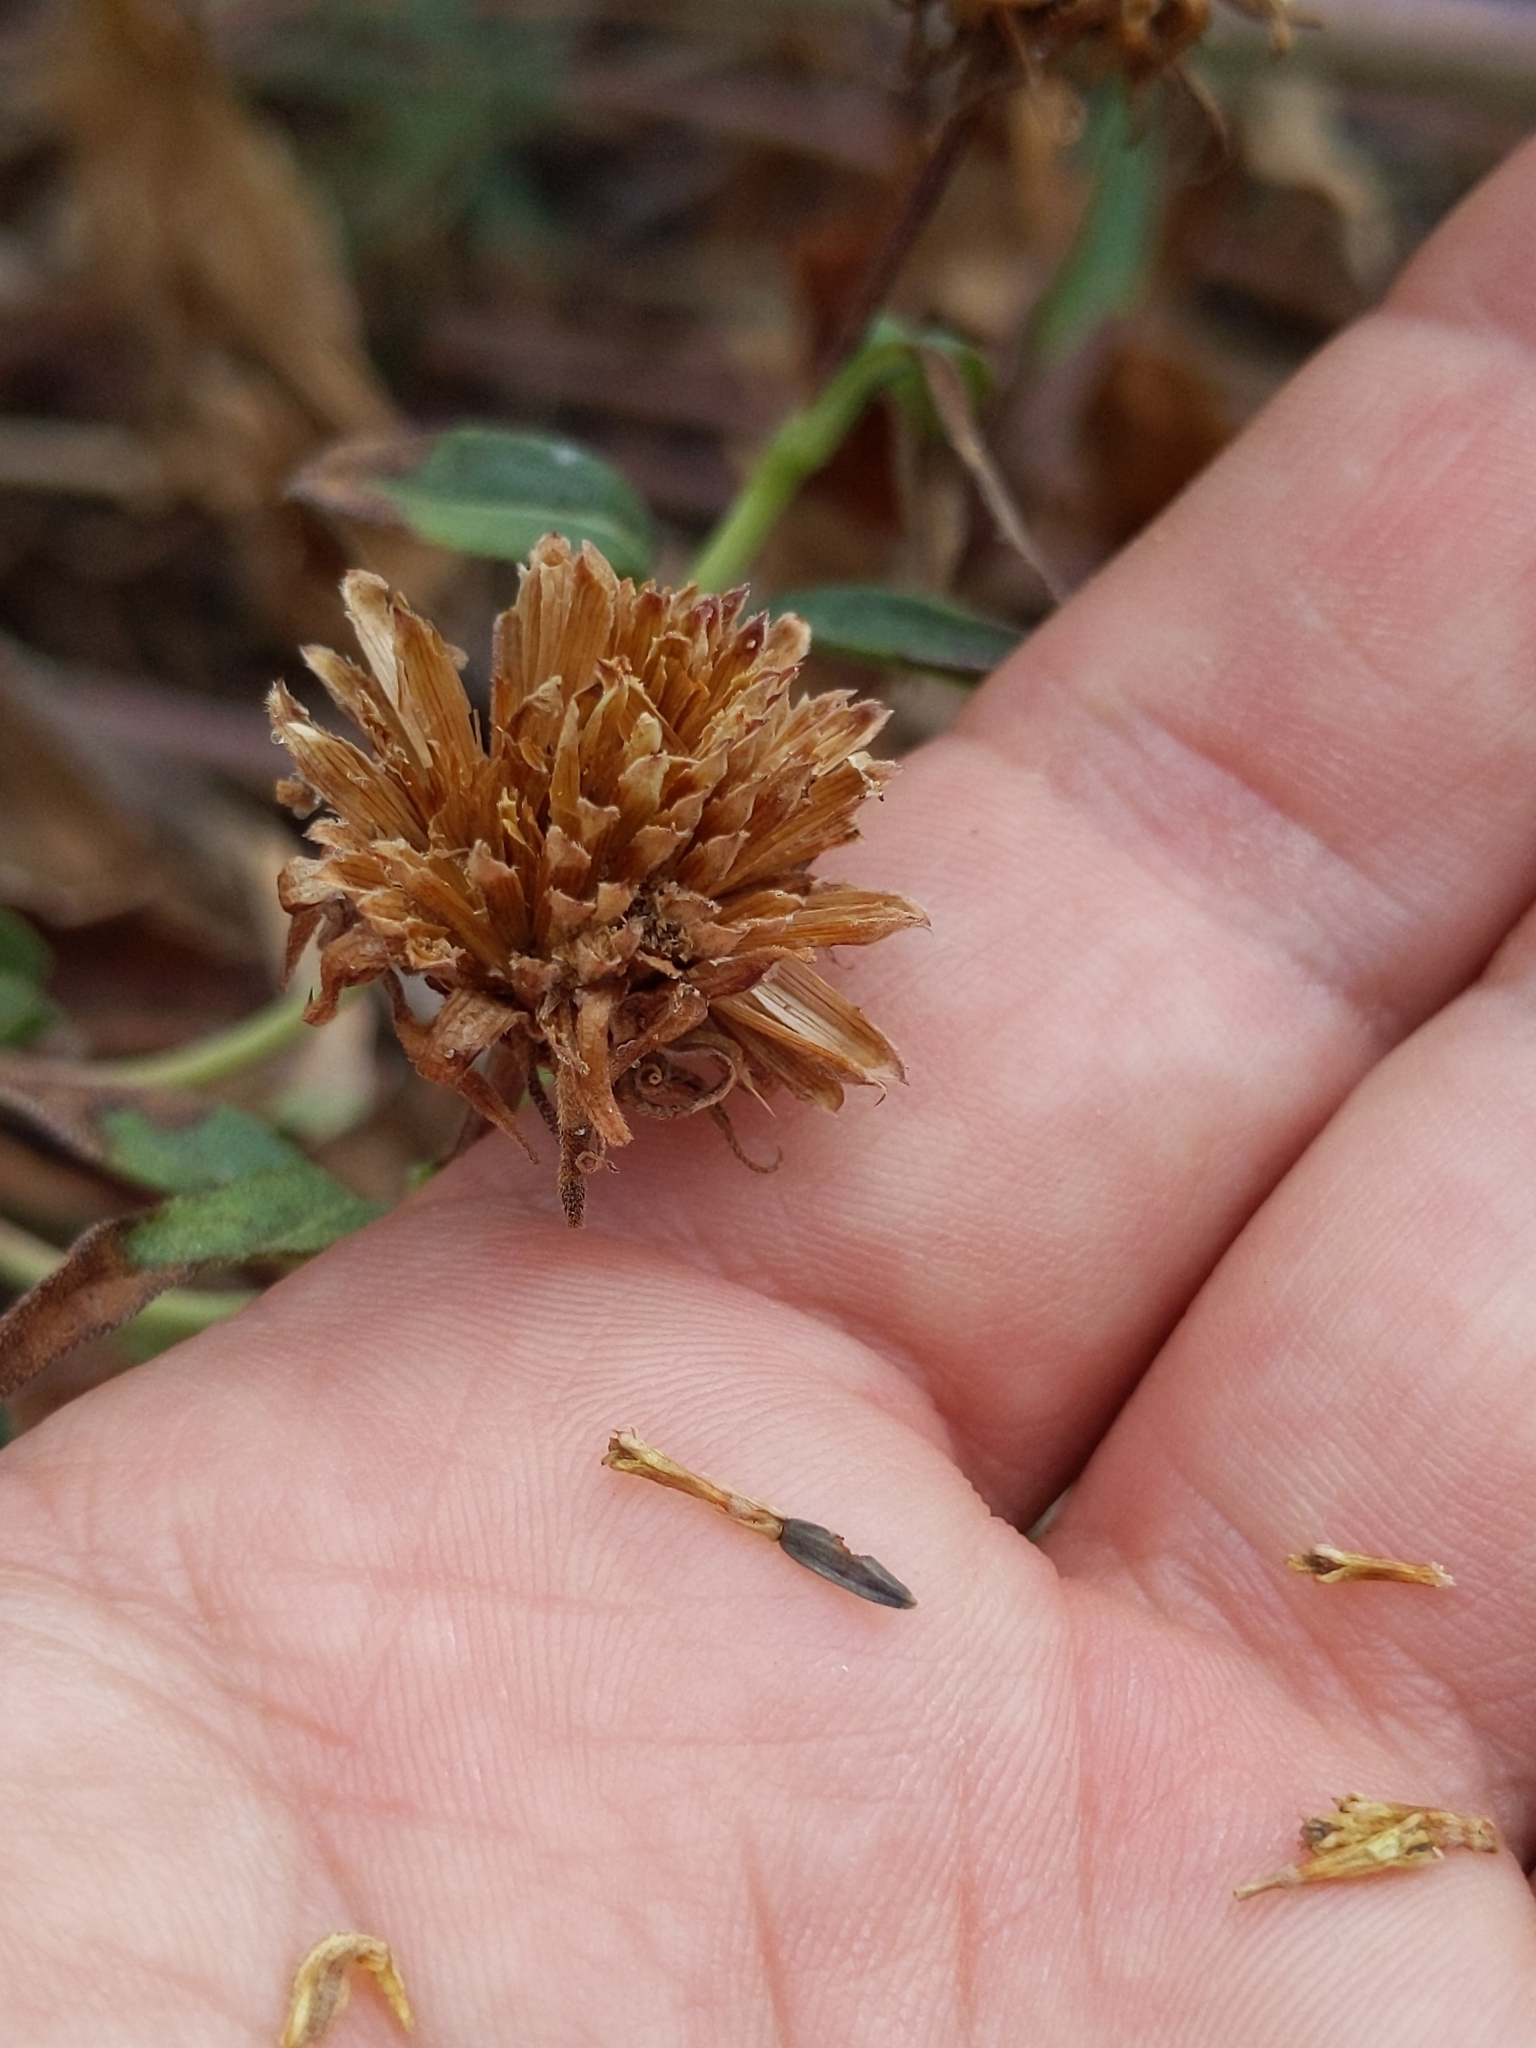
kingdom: Plantae
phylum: Tracheophyta
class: Magnoliopsida
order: Asterales
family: Asteraceae
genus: Helianthus
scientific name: Helianthus californicus
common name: California sunflower
